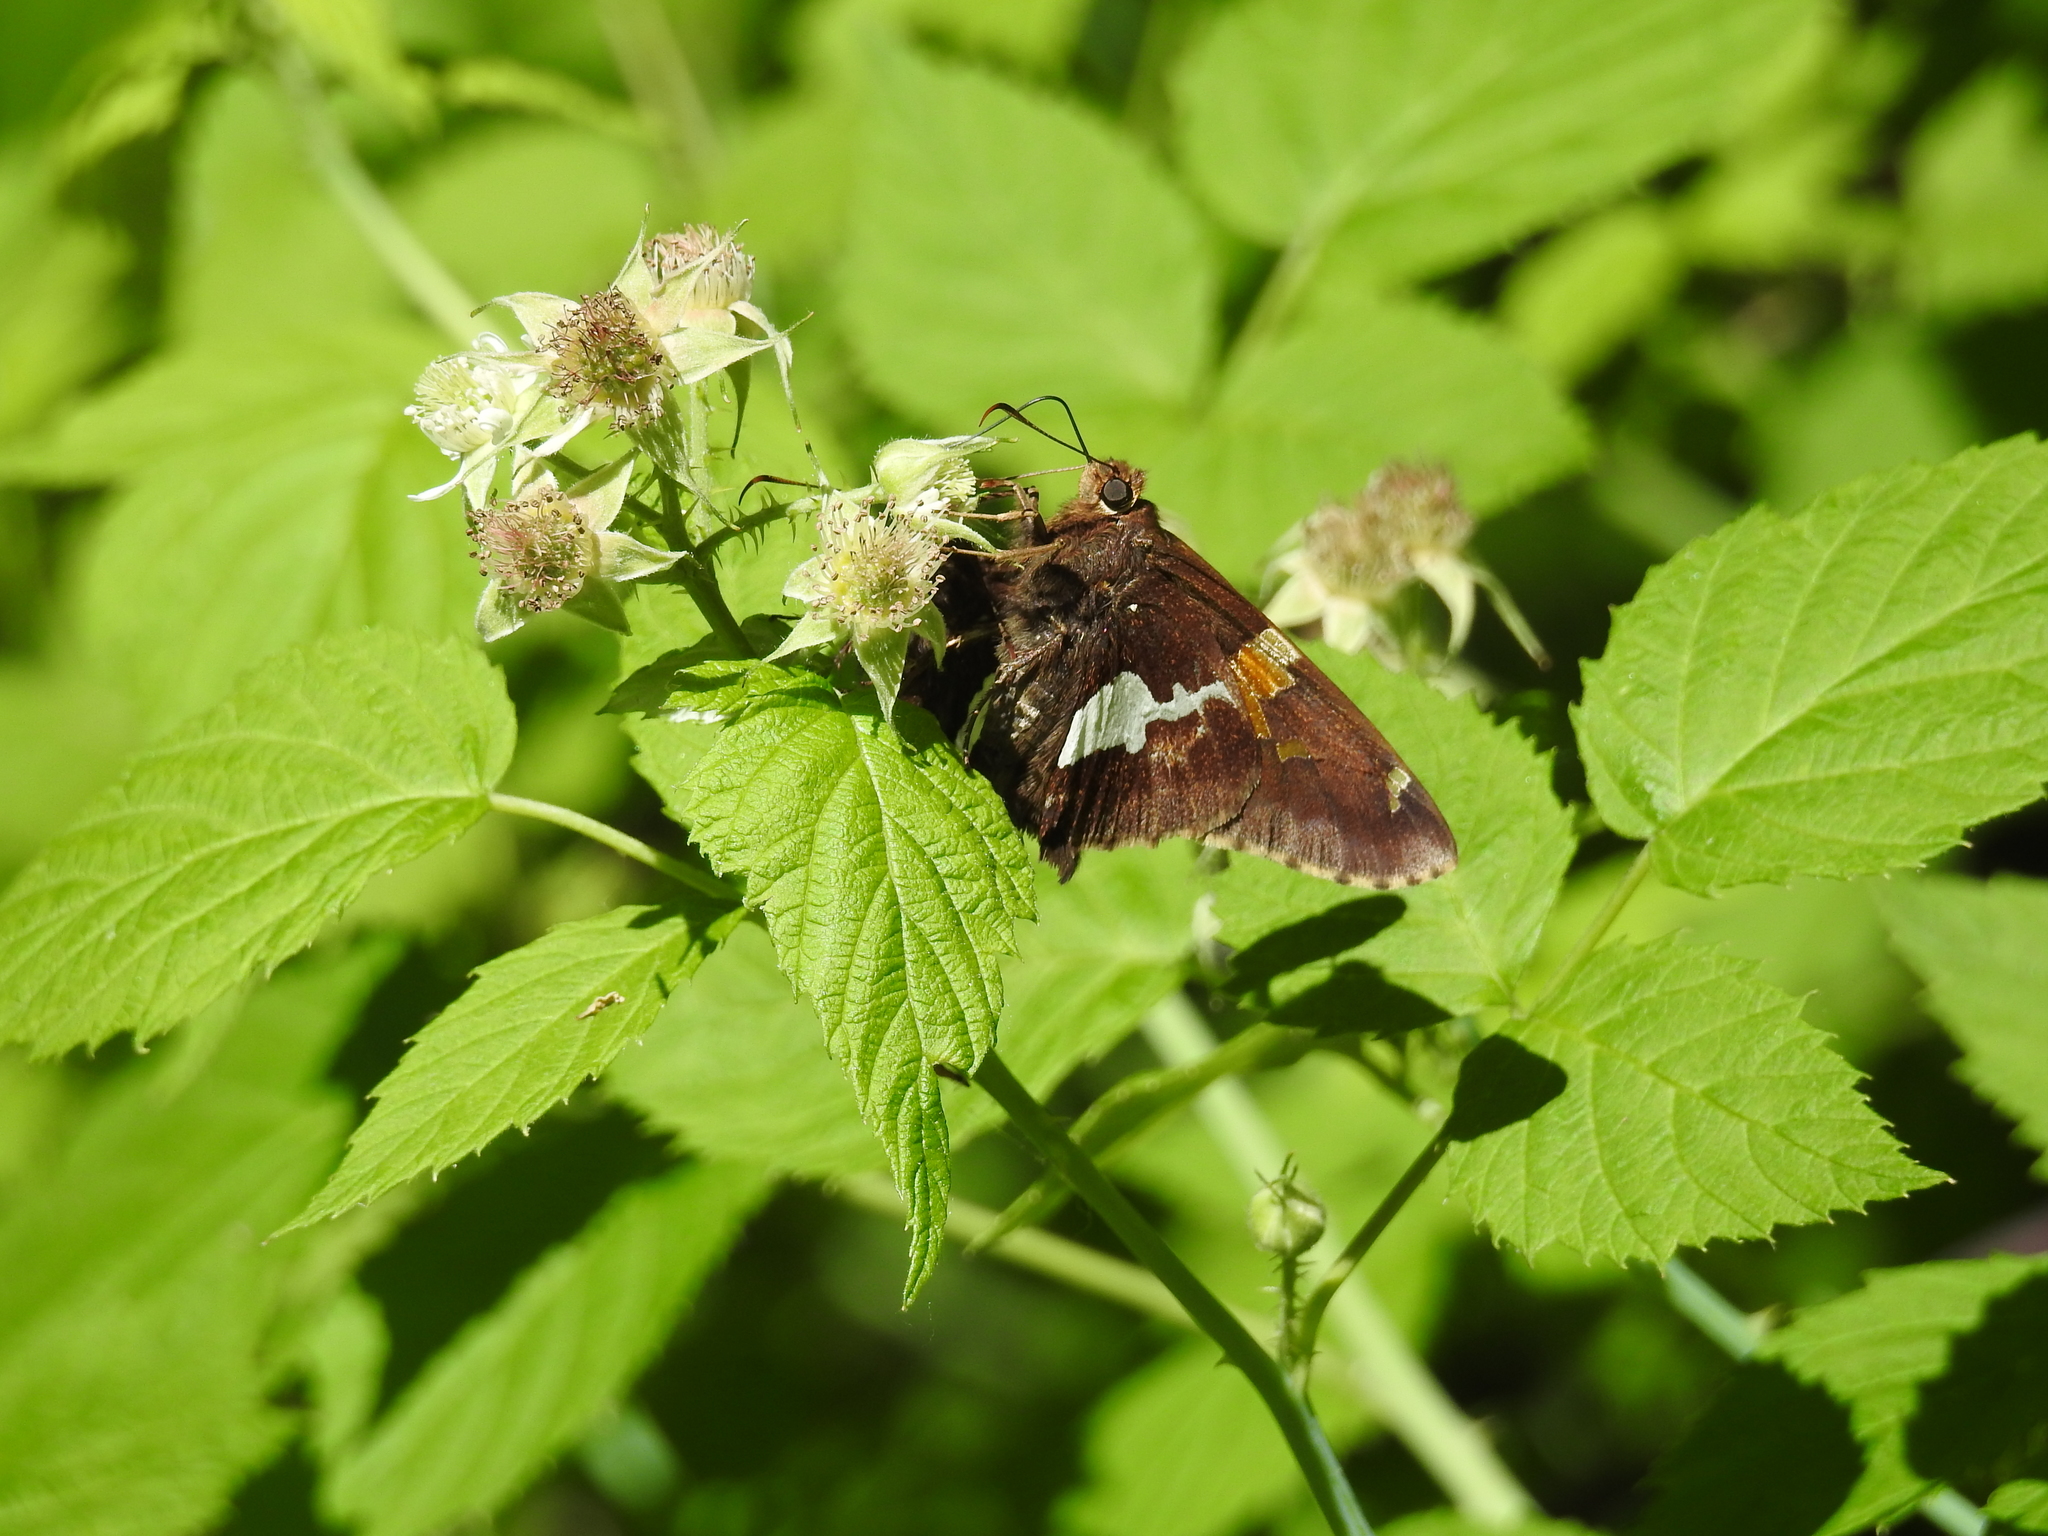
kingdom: Animalia
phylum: Arthropoda
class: Insecta
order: Lepidoptera
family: Hesperiidae
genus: Epargyreus
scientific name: Epargyreus clarus
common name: Silver-spotted skipper
